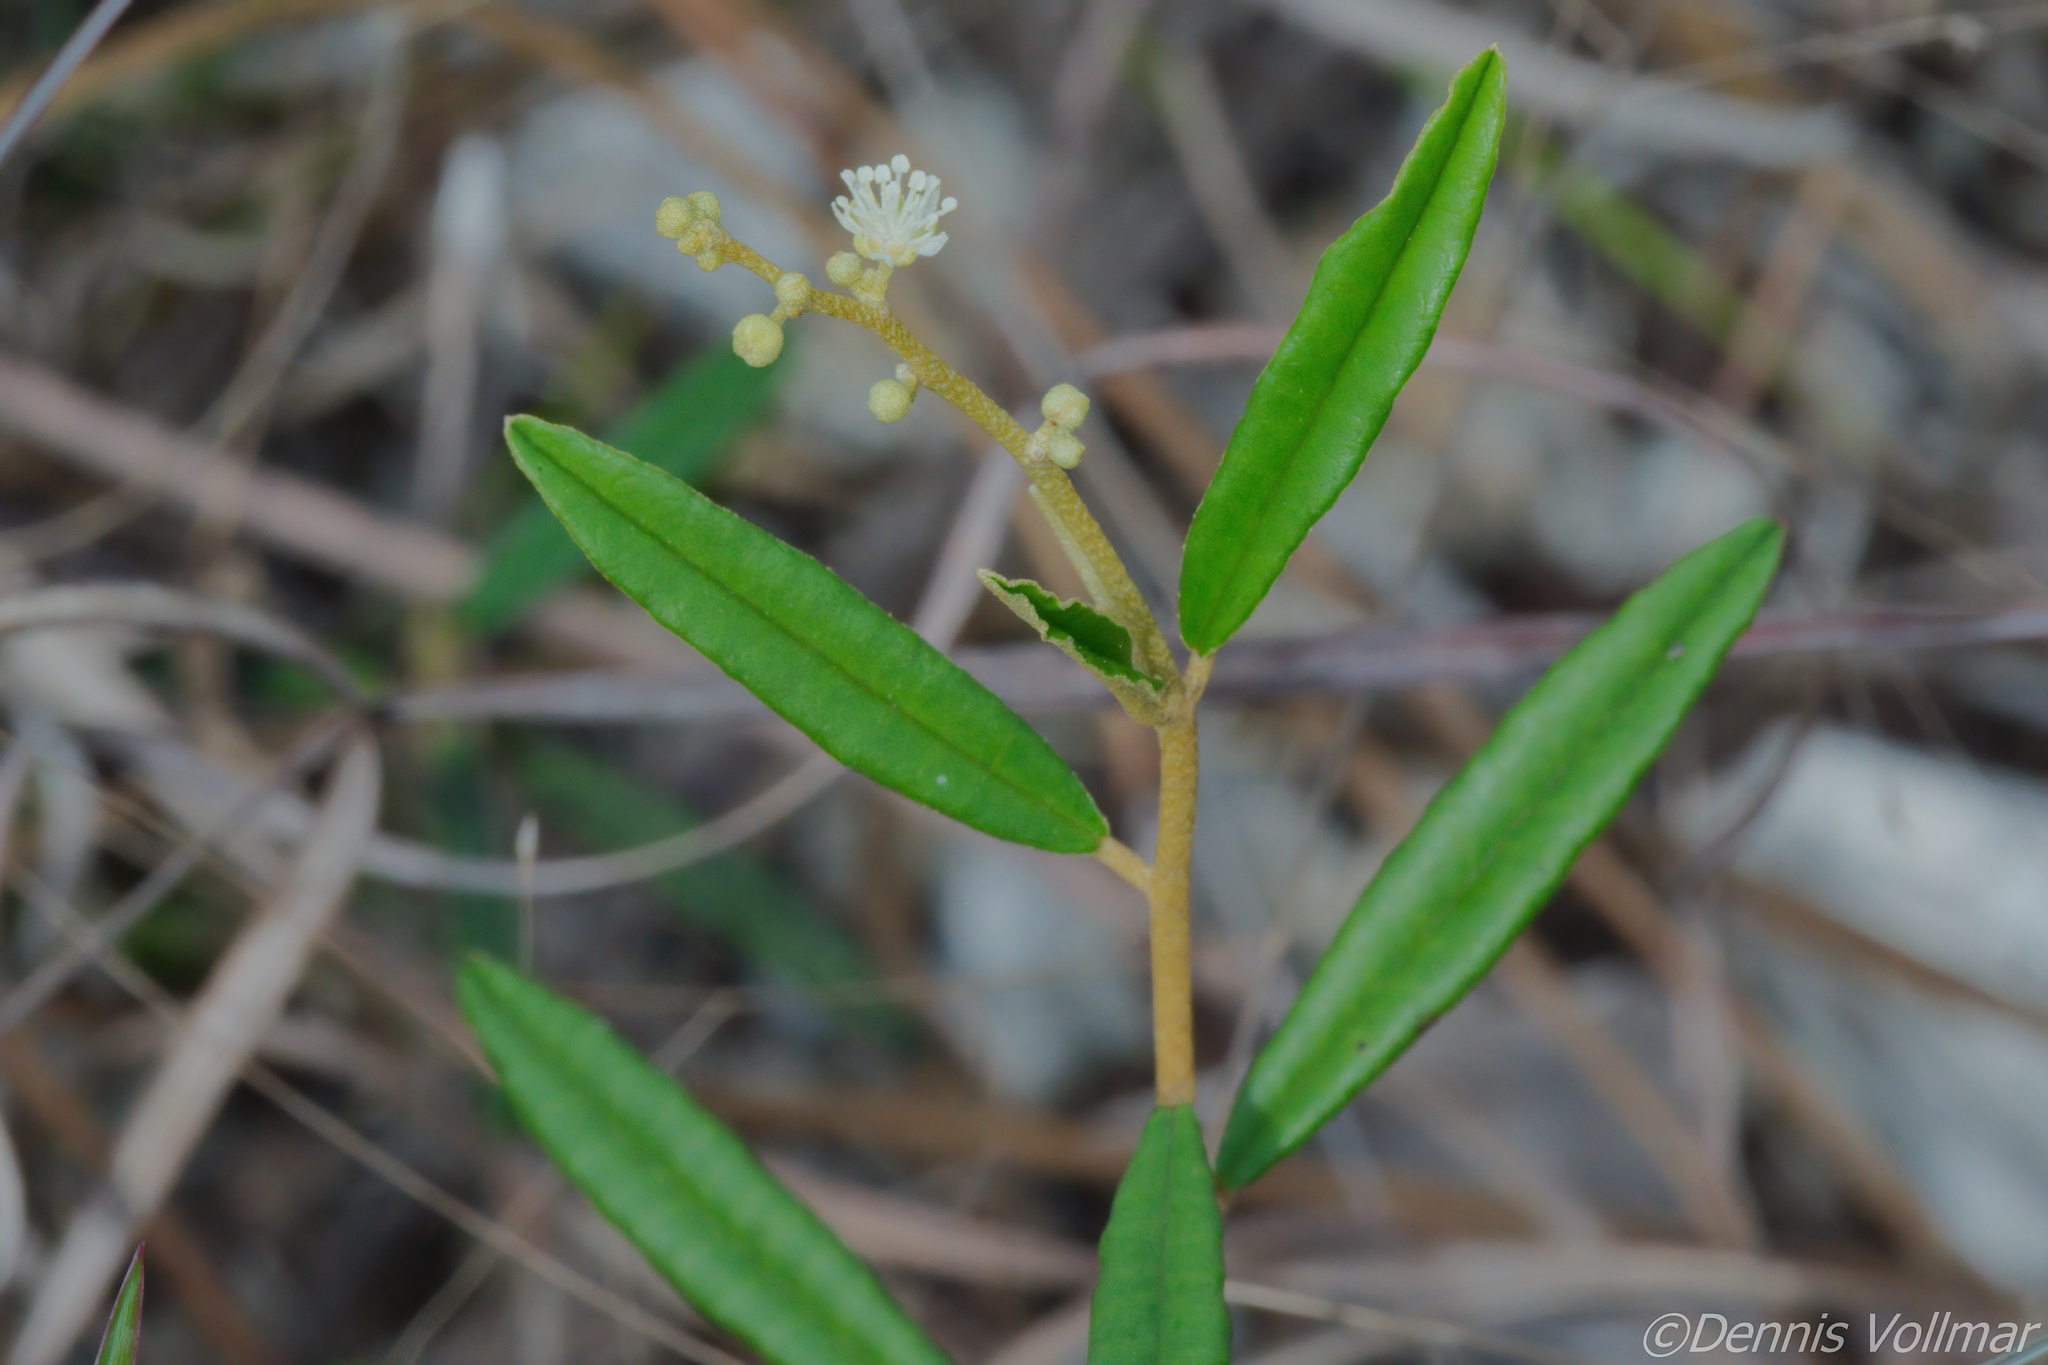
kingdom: Plantae
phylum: Tracheophyta
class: Magnoliopsida
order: Malpighiales
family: Euphorbiaceae
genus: Croton
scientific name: Croton linearis
